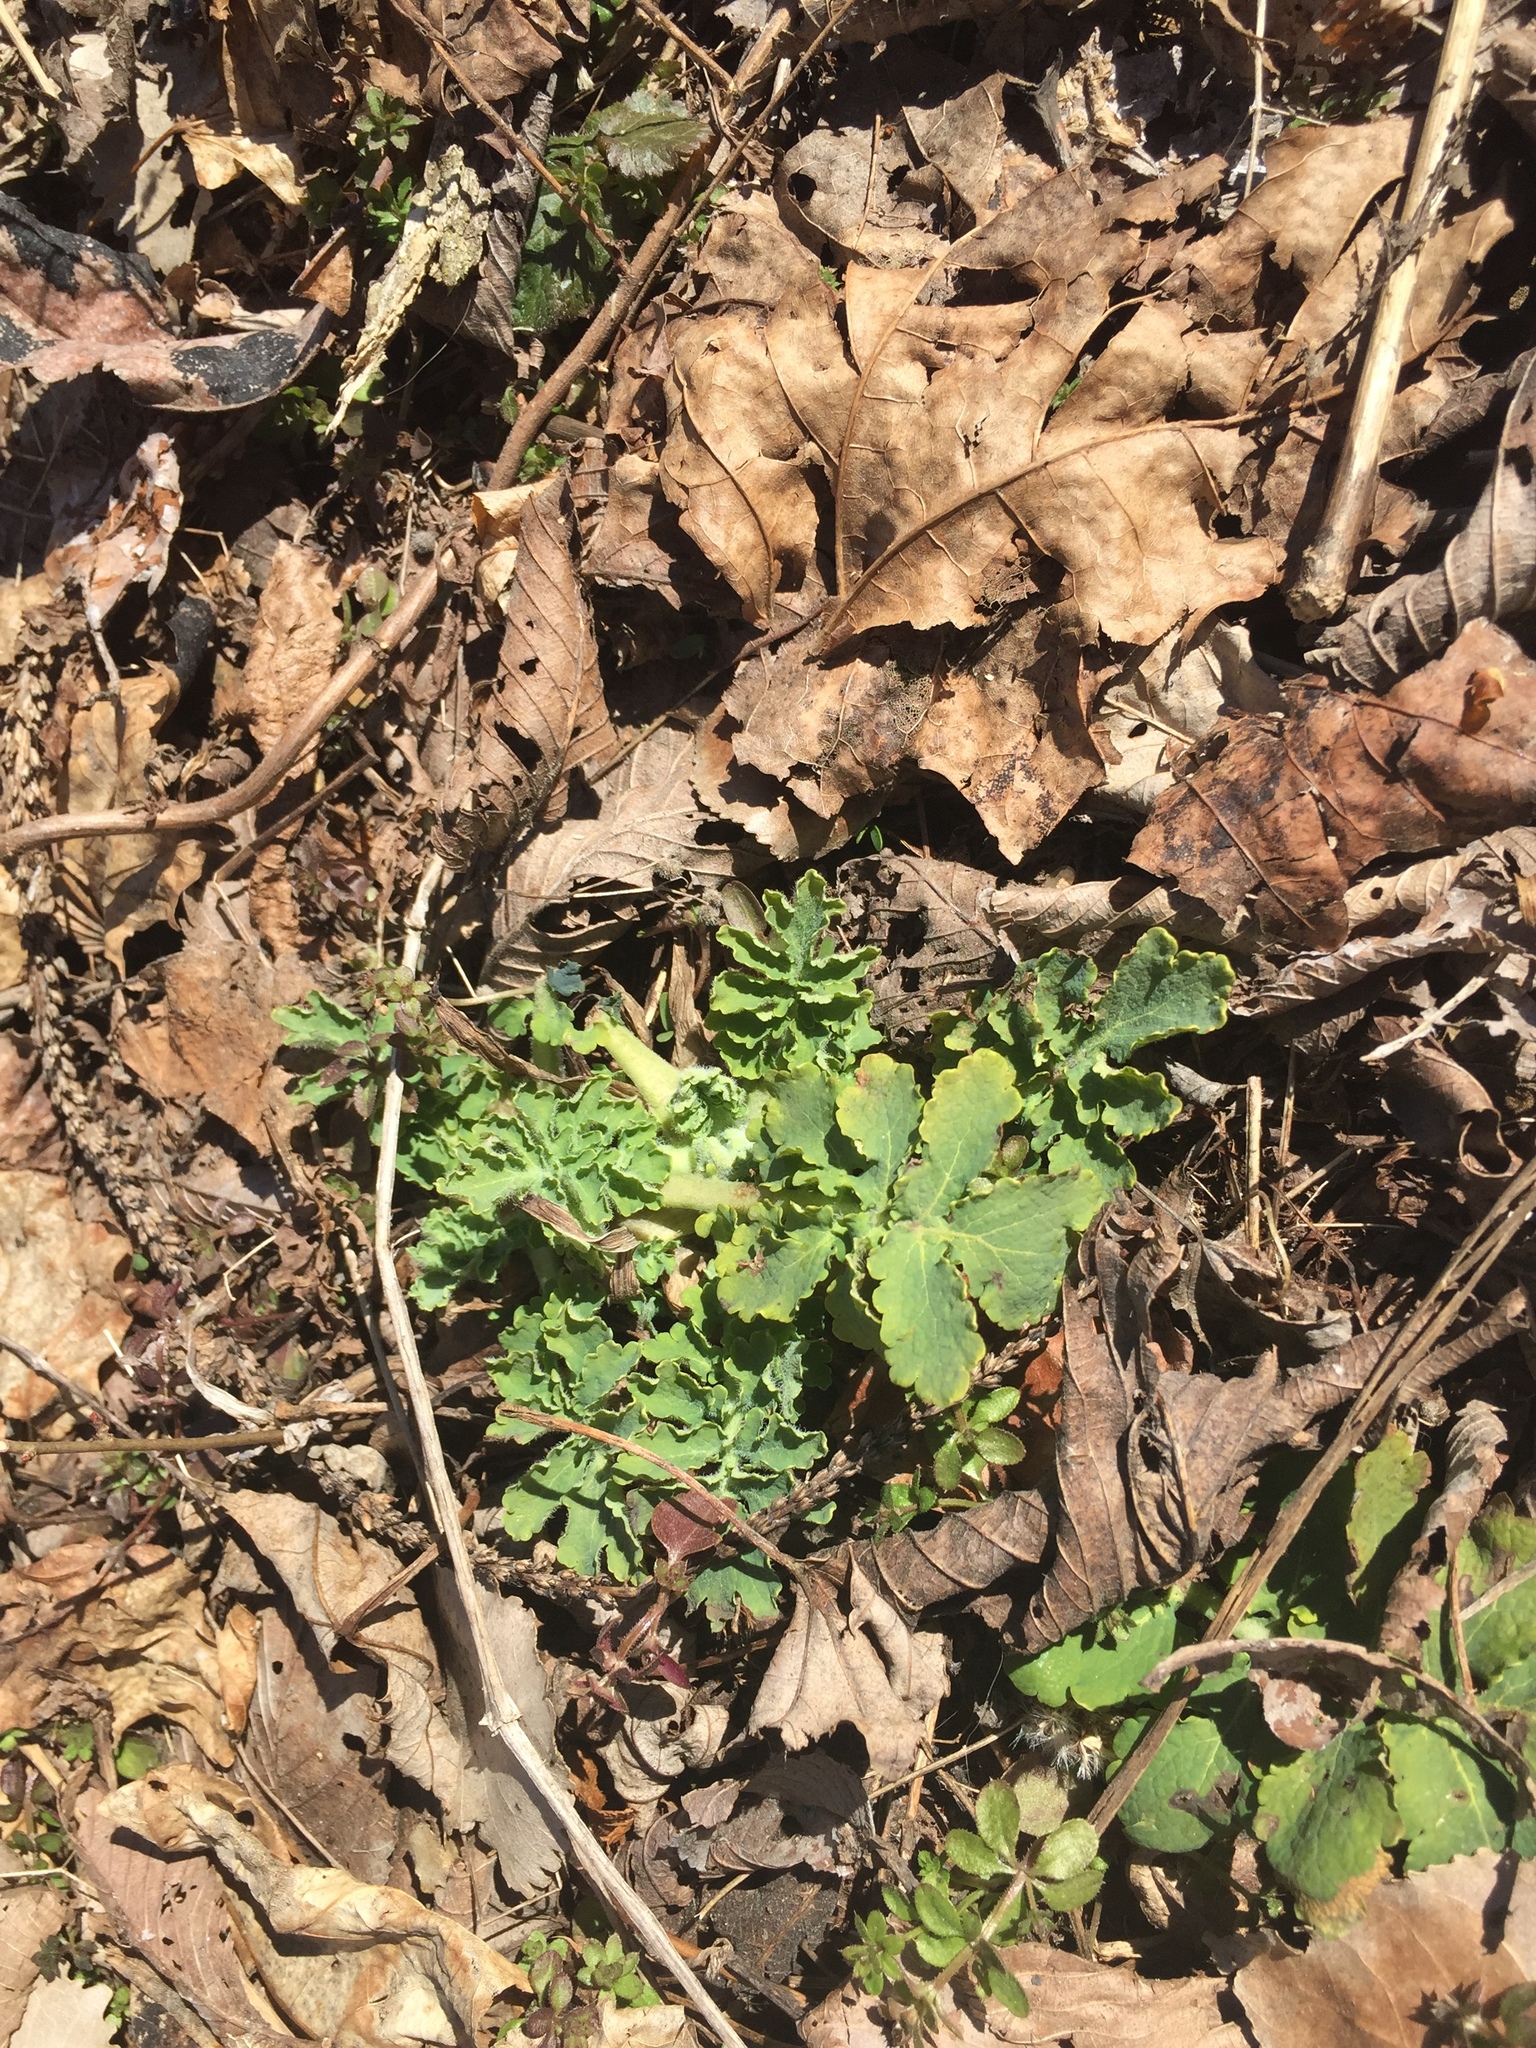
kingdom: Plantae
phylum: Tracheophyta
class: Magnoliopsida
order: Ranunculales
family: Papaveraceae
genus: Chelidonium
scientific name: Chelidonium majus
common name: Greater celandine
